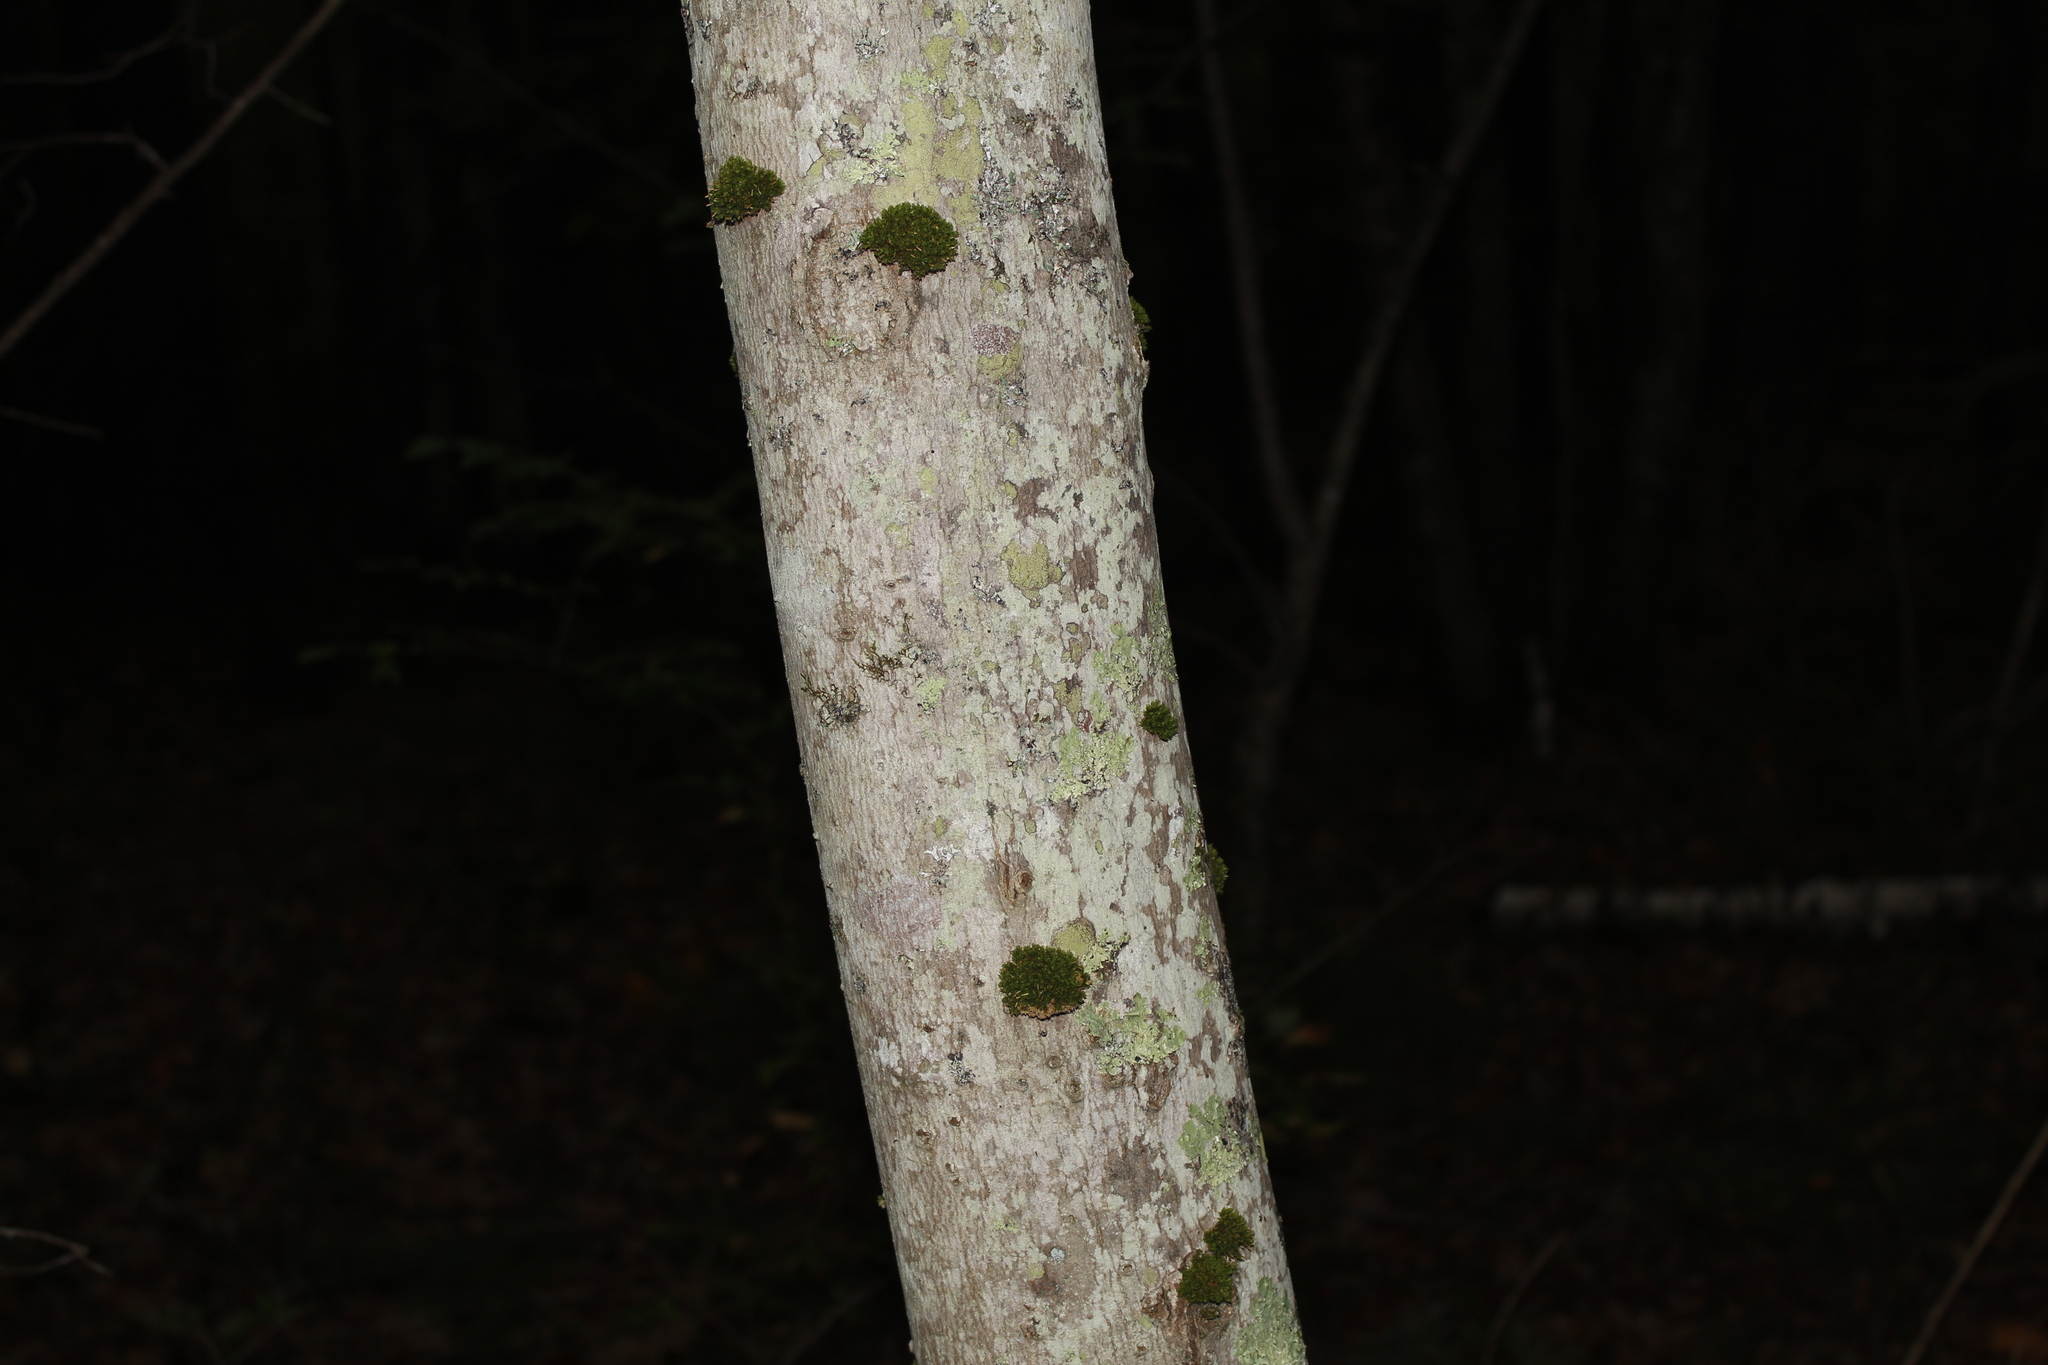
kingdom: Plantae
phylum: Tracheophyta
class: Magnoliopsida
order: Fagales
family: Fagaceae
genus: Fagus
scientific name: Fagus grandifolia
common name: American beech
